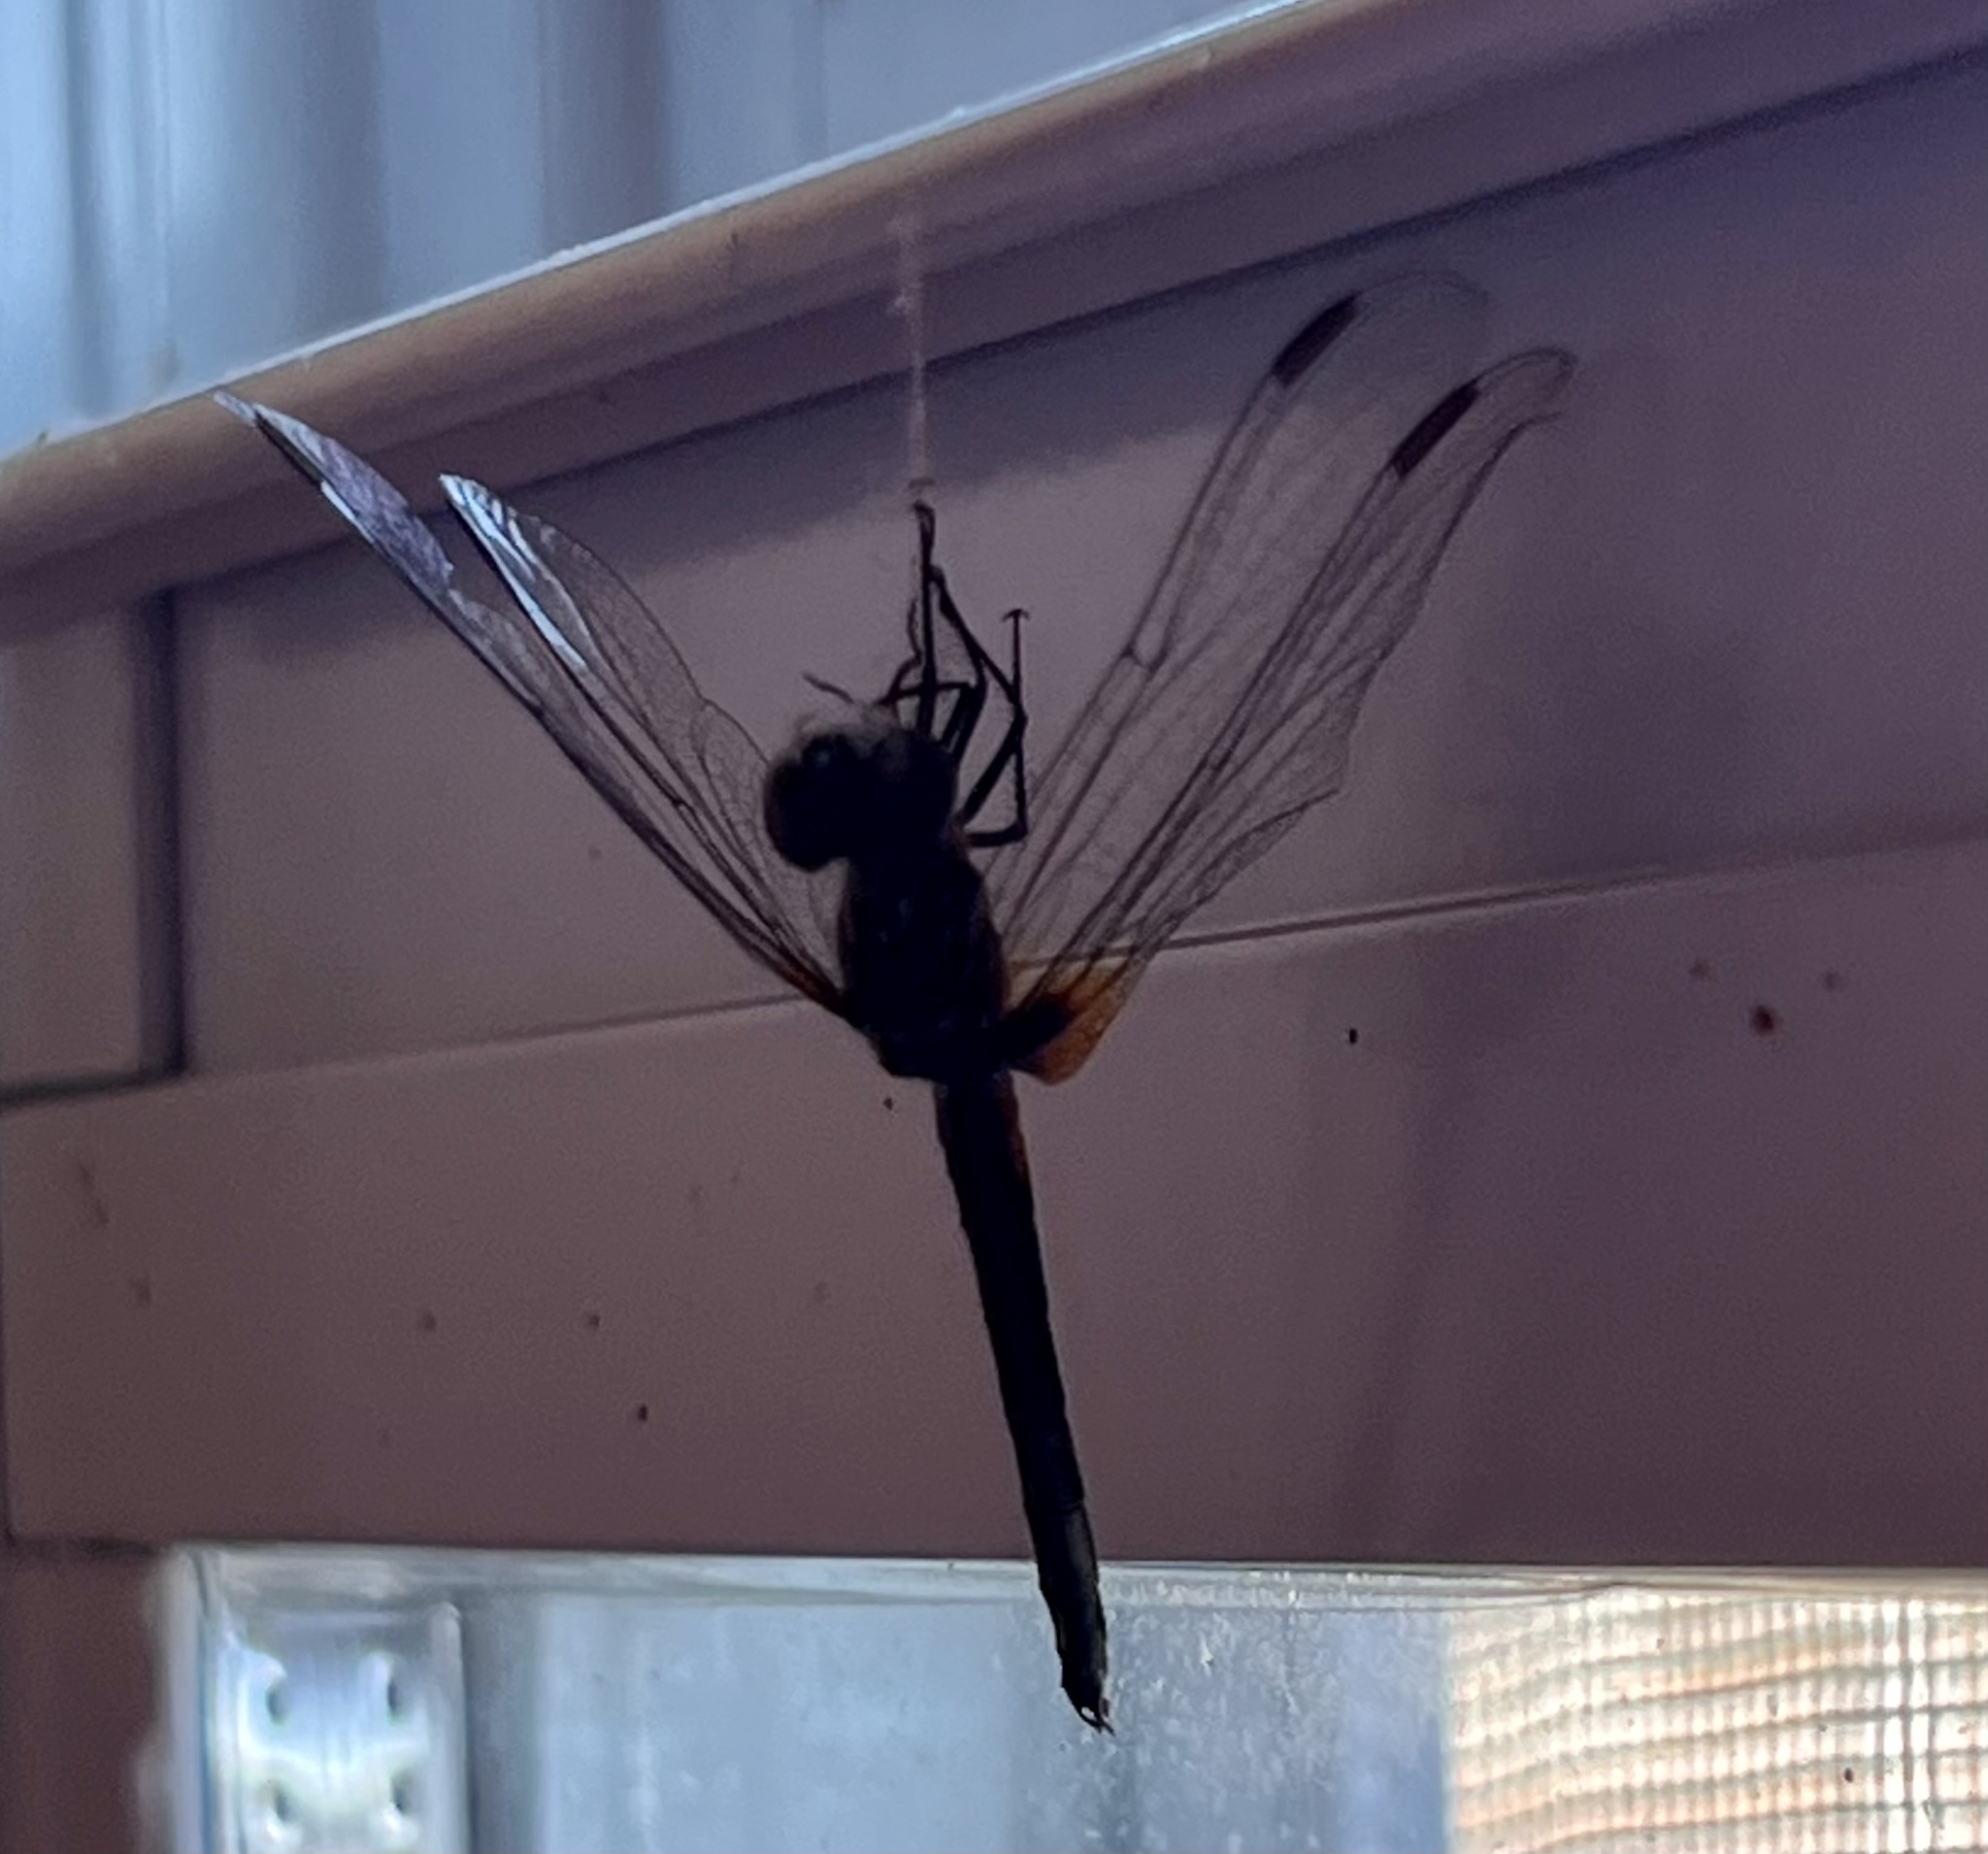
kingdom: Animalia
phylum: Arthropoda
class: Insecta
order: Odonata
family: Libellulidae
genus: Pachydiplax
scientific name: Pachydiplax longipennis
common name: Blue dasher
